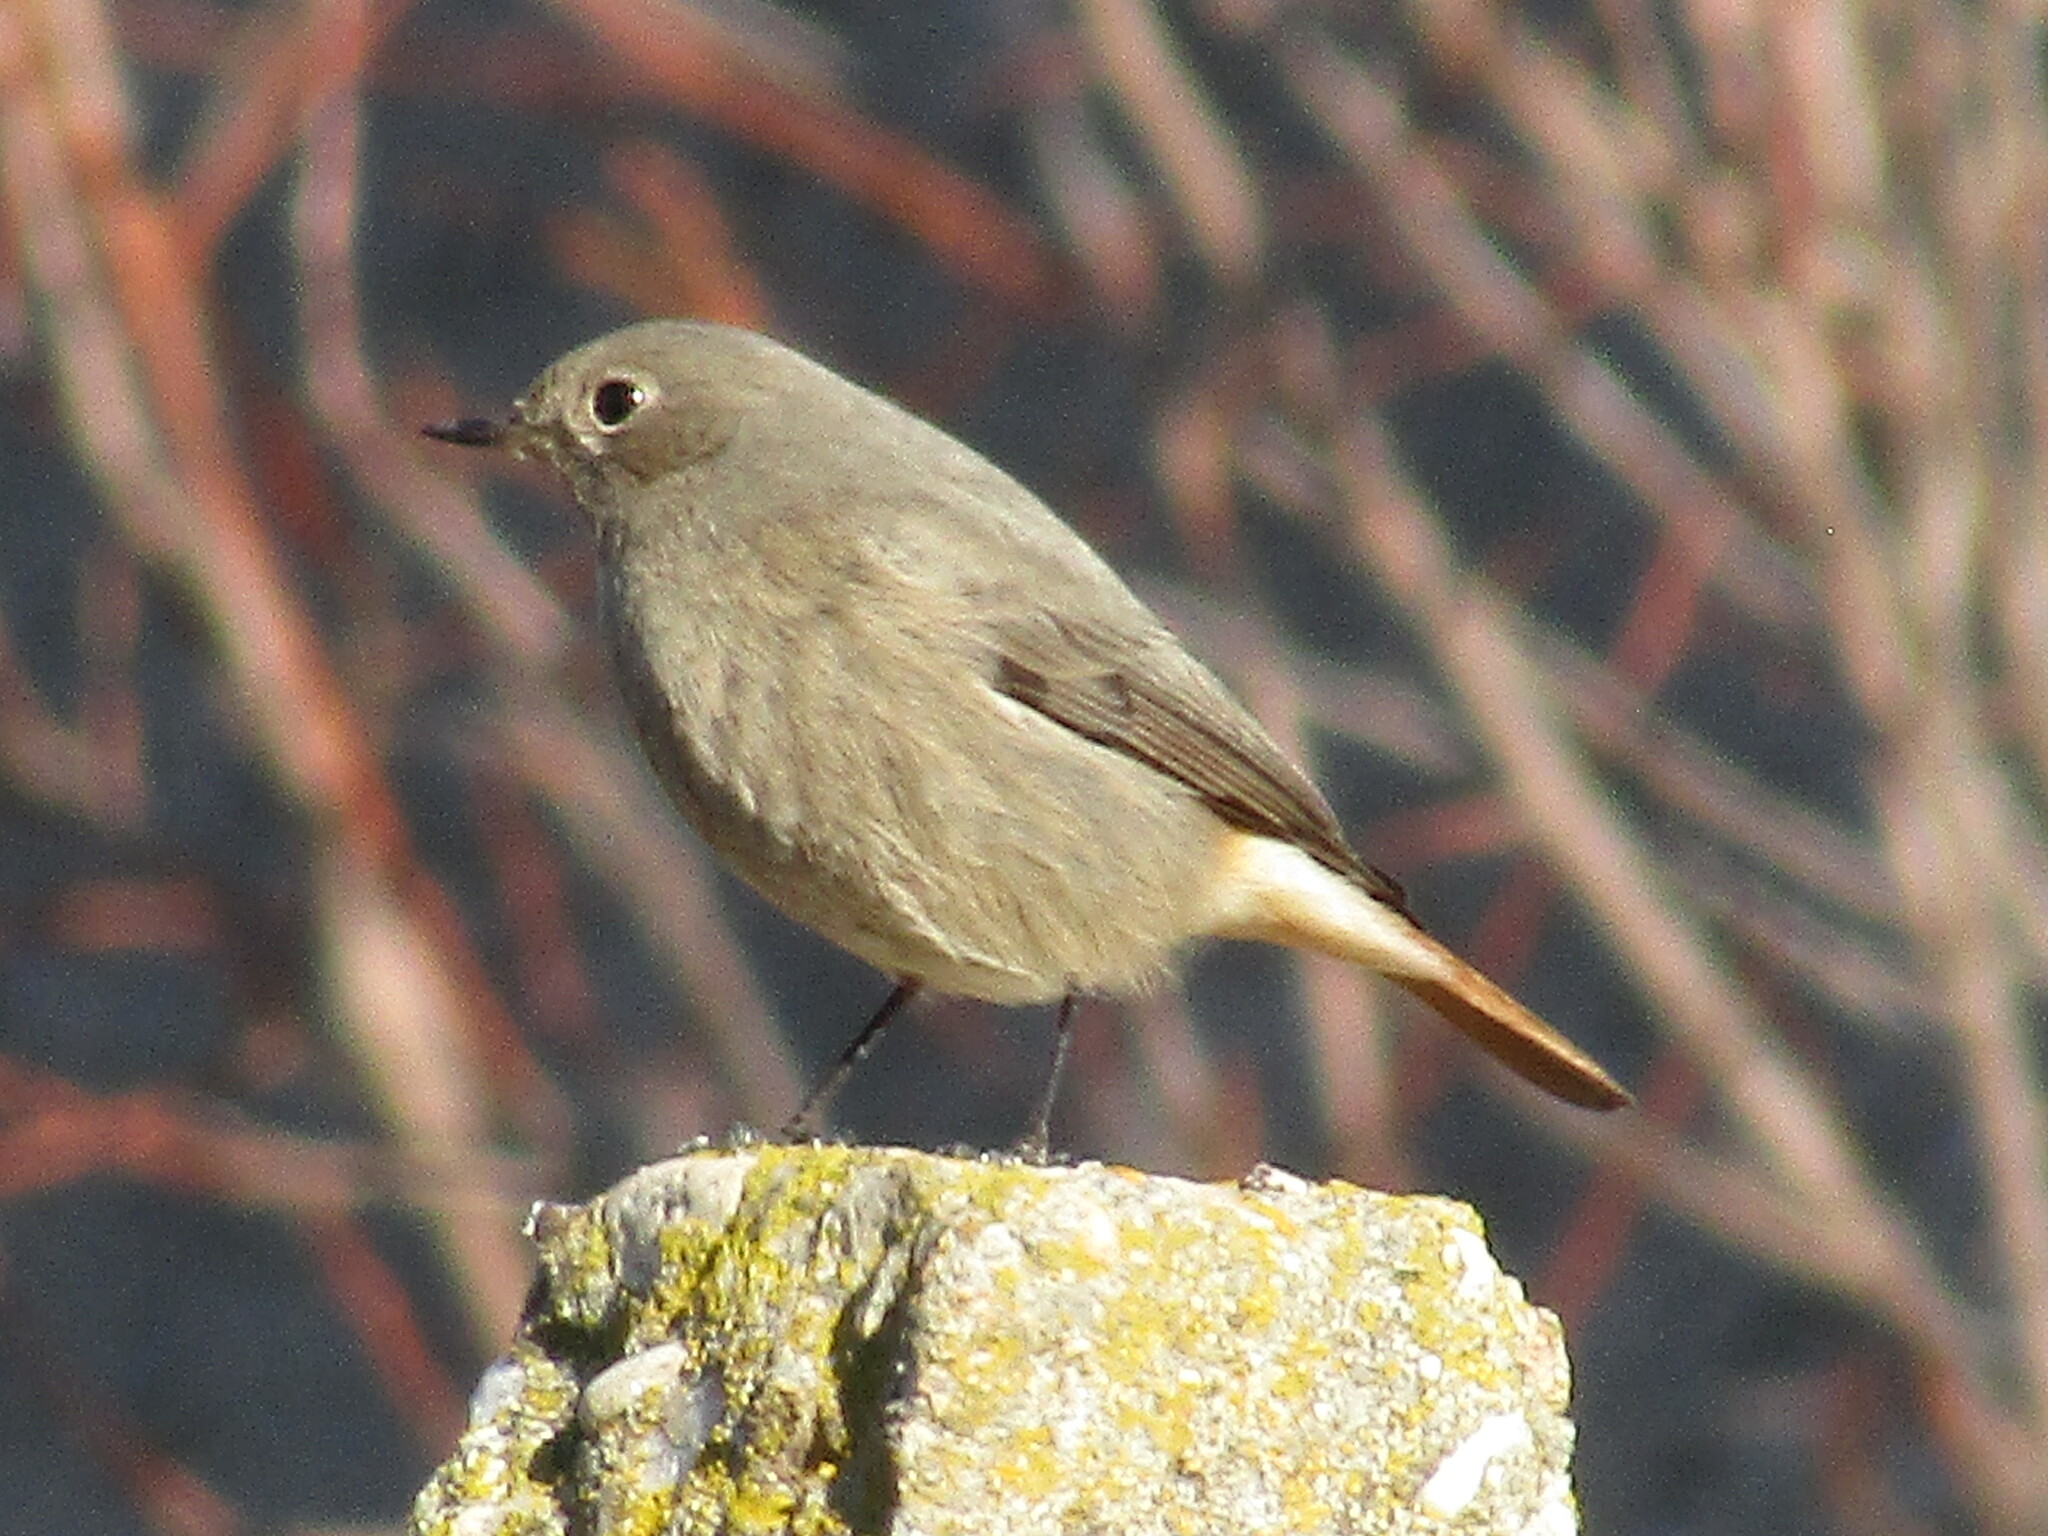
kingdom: Animalia
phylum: Chordata
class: Aves
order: Passeriformes
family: Muscicapidae
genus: Phoenicurus
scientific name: Phoenicurus ochruros
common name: Black redstart
